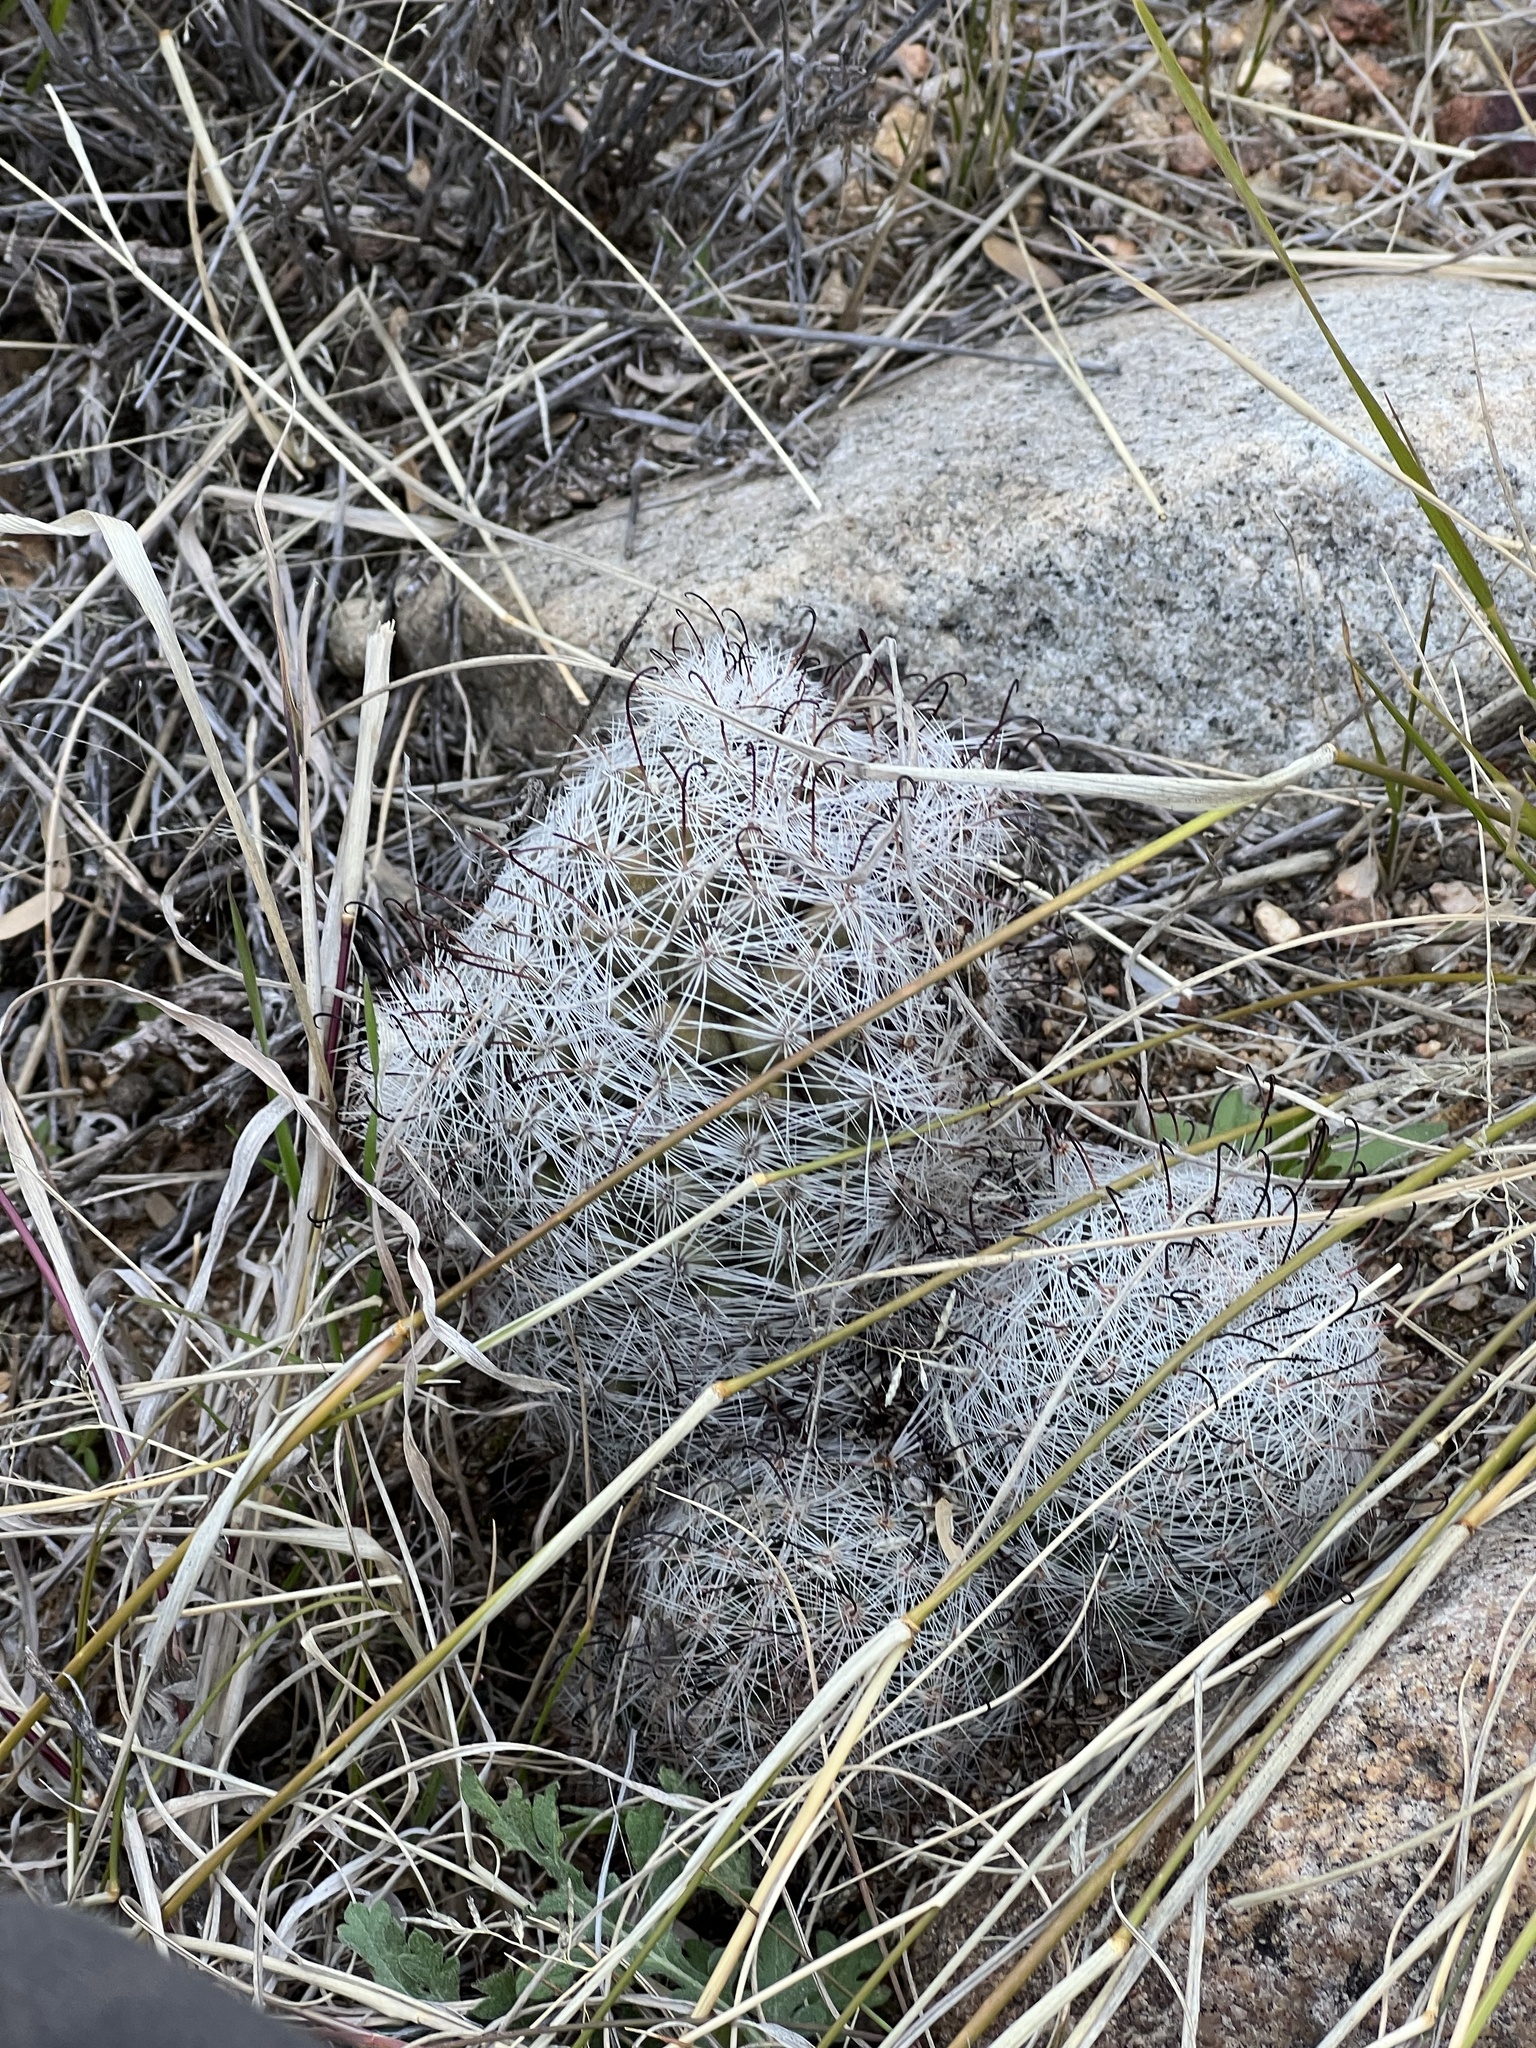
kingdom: Plantae
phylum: Tracheophyta
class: Magnoliopsida
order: Caryophyllales
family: Cactaceae
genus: Cochemiea
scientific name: Cochemiea grahamii
